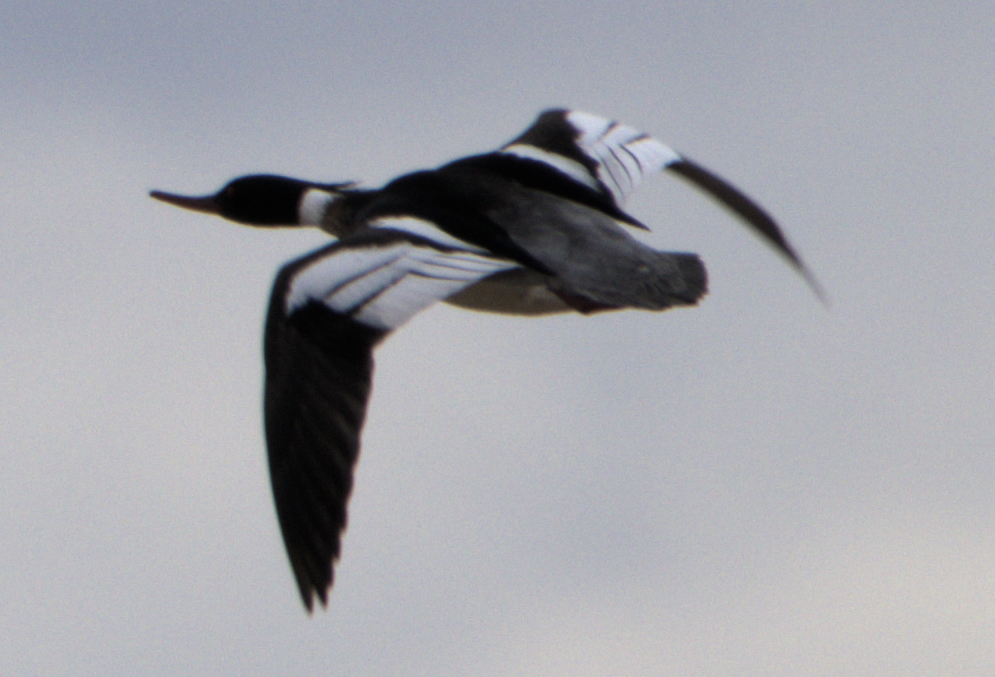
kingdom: Animalia
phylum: Chordata
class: Aves
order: Anseriformes
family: Anatidae
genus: Mergus
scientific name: Mergus serrator
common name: Red-breasted merganser
